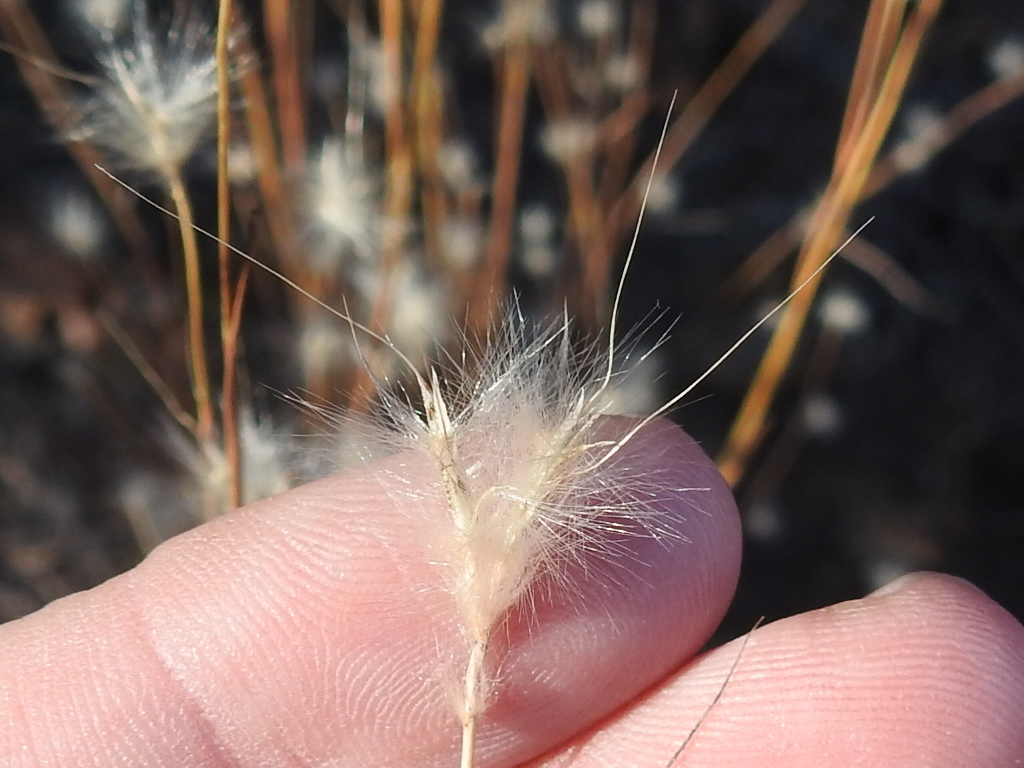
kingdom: Plantae
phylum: Tracheophyta
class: Liliopsida
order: Poales
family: Poaceae
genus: Andropogon
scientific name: Andropogon ternarius
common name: Split bluestem
